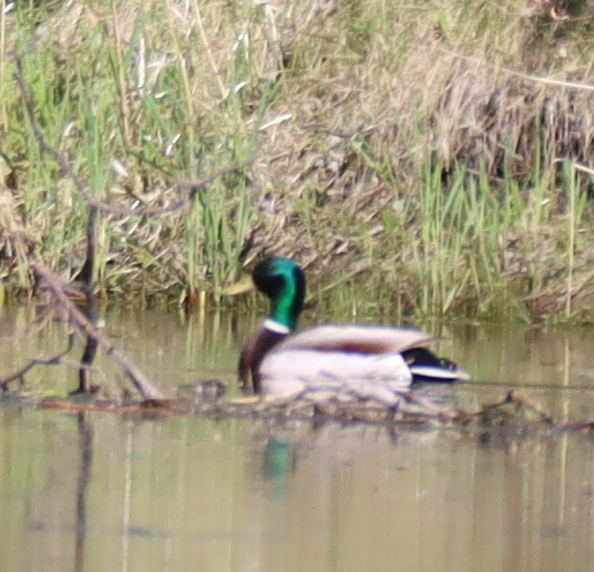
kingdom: Animalia
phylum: Chordata
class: Aves
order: Anseriformes
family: Anatidae
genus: Anas
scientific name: Anas platyrhynchos
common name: Mallard
